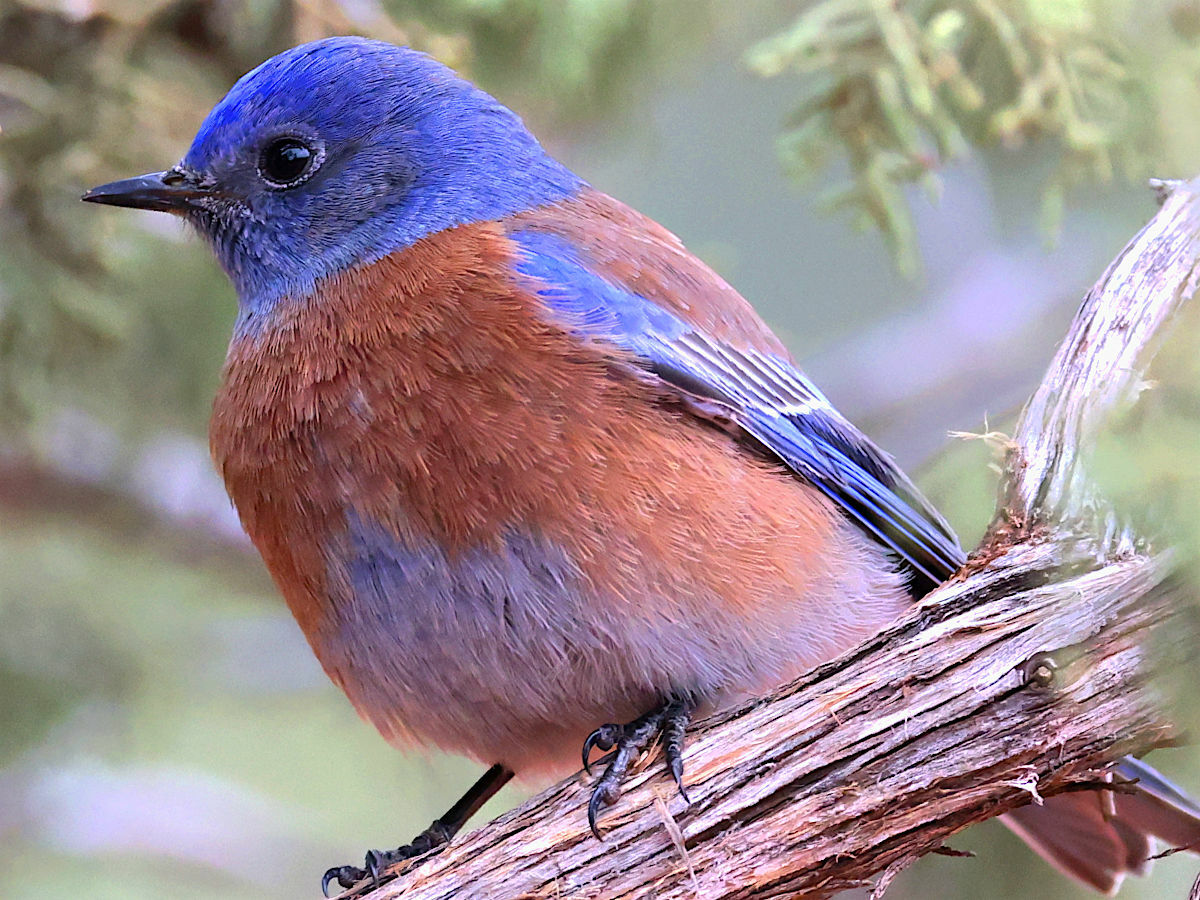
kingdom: Animalia
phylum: Chordata
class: Aves
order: Passeriformes
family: Turdidae
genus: Sialia
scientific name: Sialia mexicana
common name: Western bluebird
